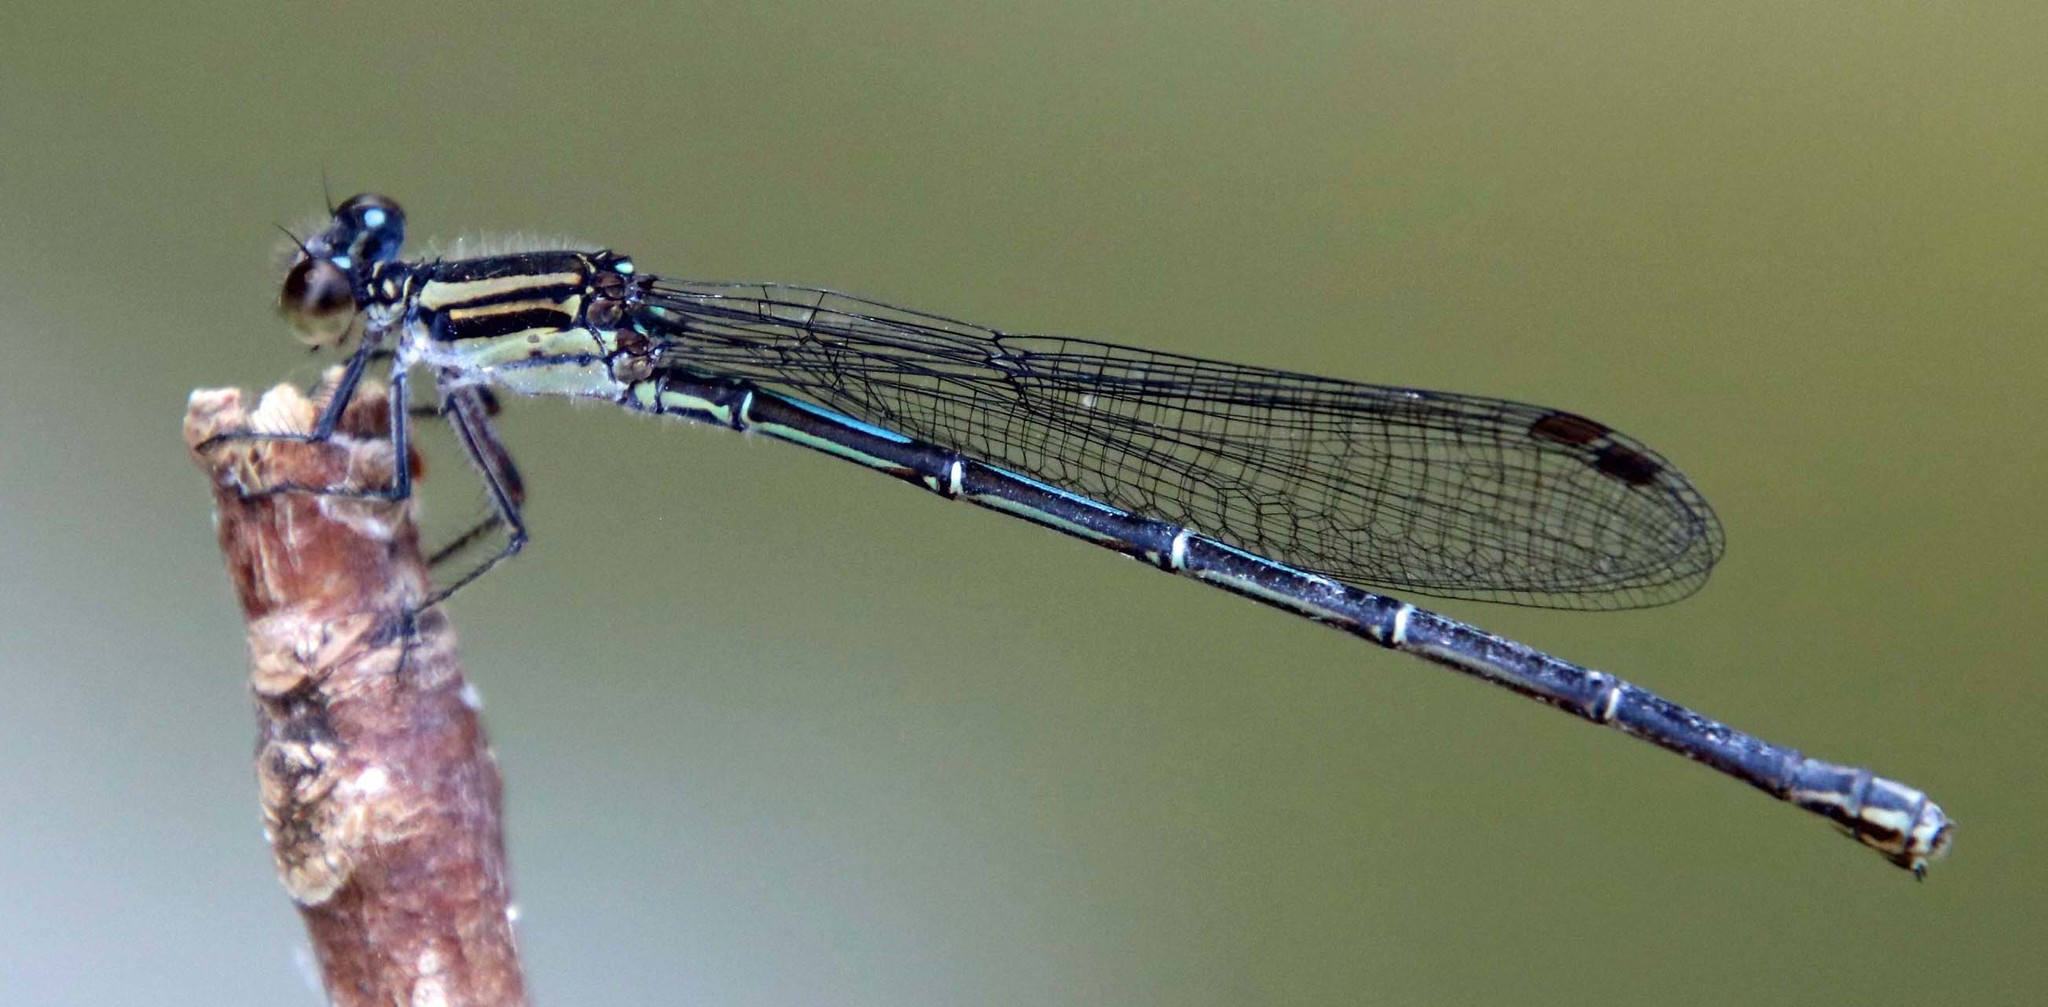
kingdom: Animalia
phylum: Arthropoda
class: Insecta
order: Odonata
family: Coenagrionidae
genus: Argia
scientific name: Argia translata
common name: Dusky dancer
